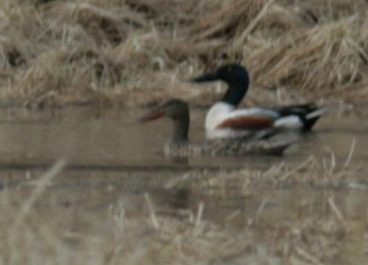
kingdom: Animalia
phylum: Chordata
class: Aves
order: Anseriformes
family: Anatidae
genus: Spatula
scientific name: Spatula clypeata
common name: Northern shoveler
